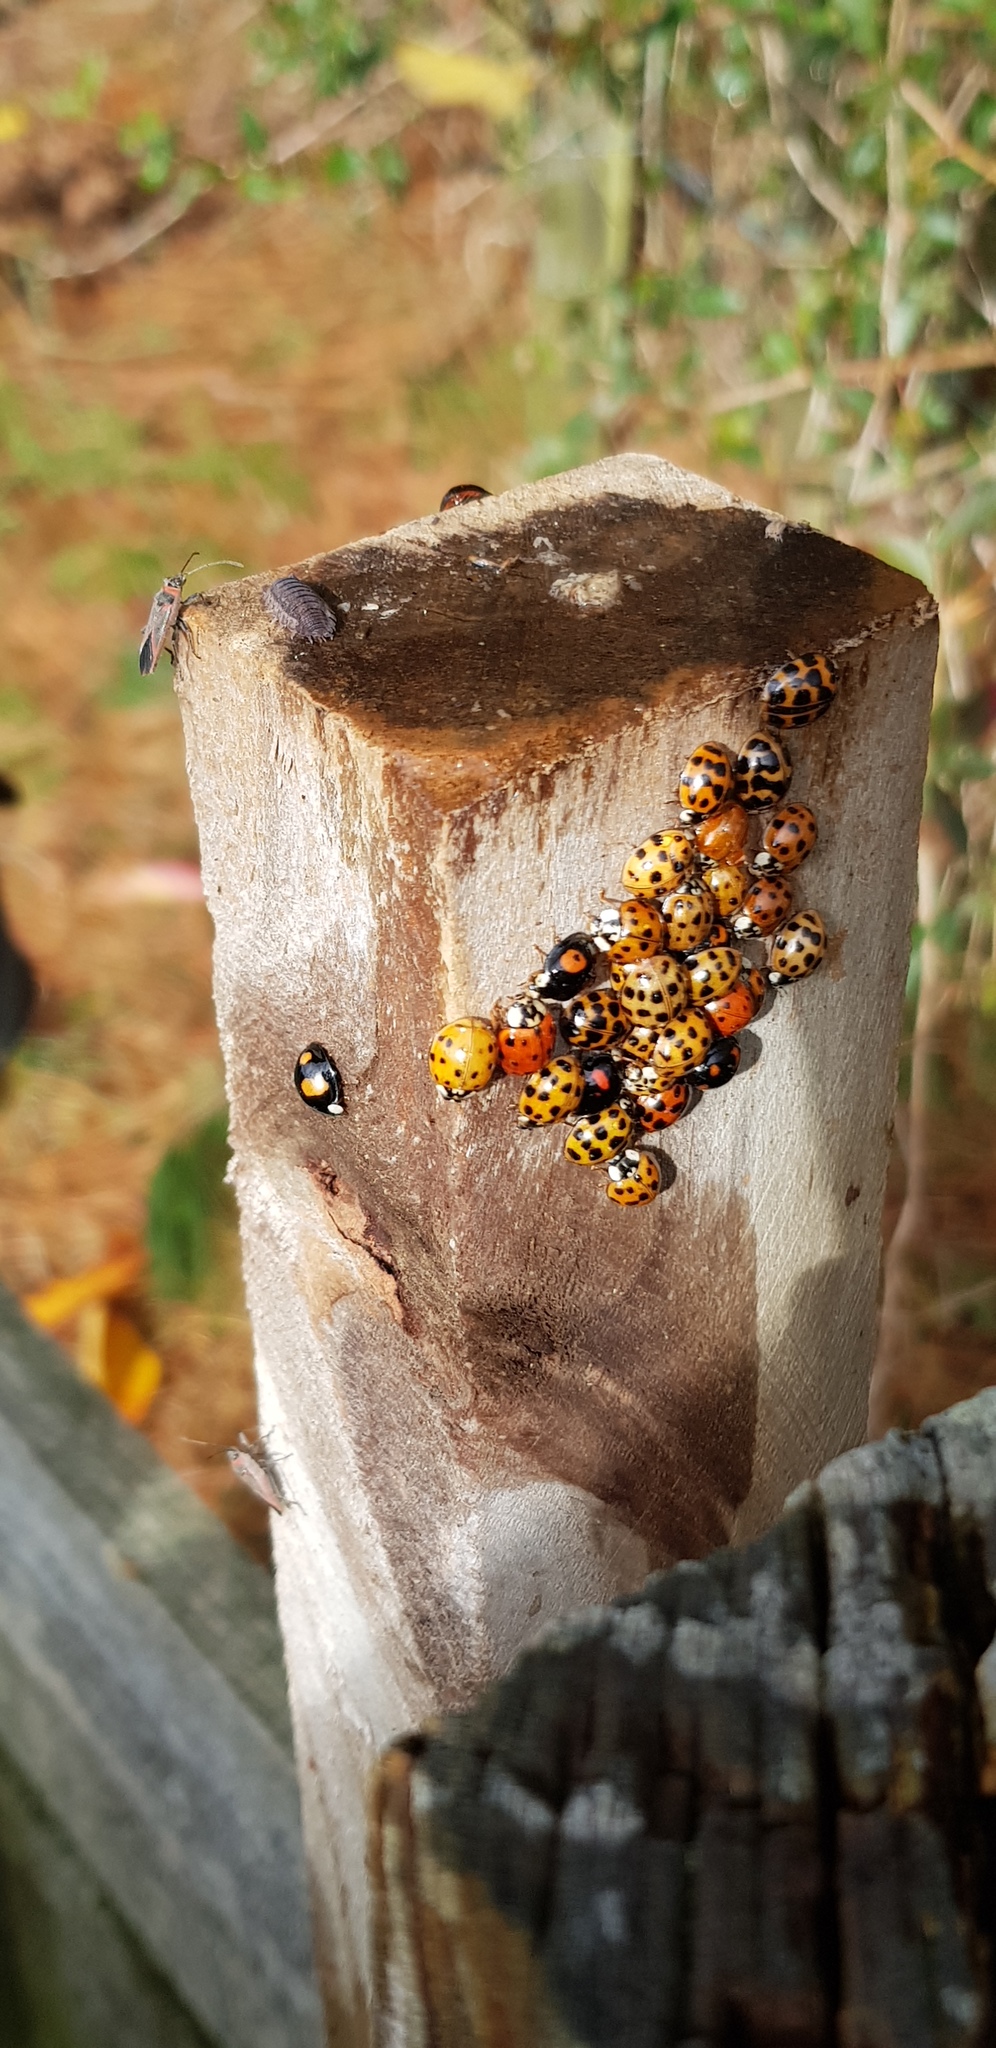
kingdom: Animalia
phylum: Arthropoda
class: Insecta
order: Coleoptera
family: Coccinellidae
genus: Harmonia
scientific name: Harmonia axyridis
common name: Harlequin ladybird
